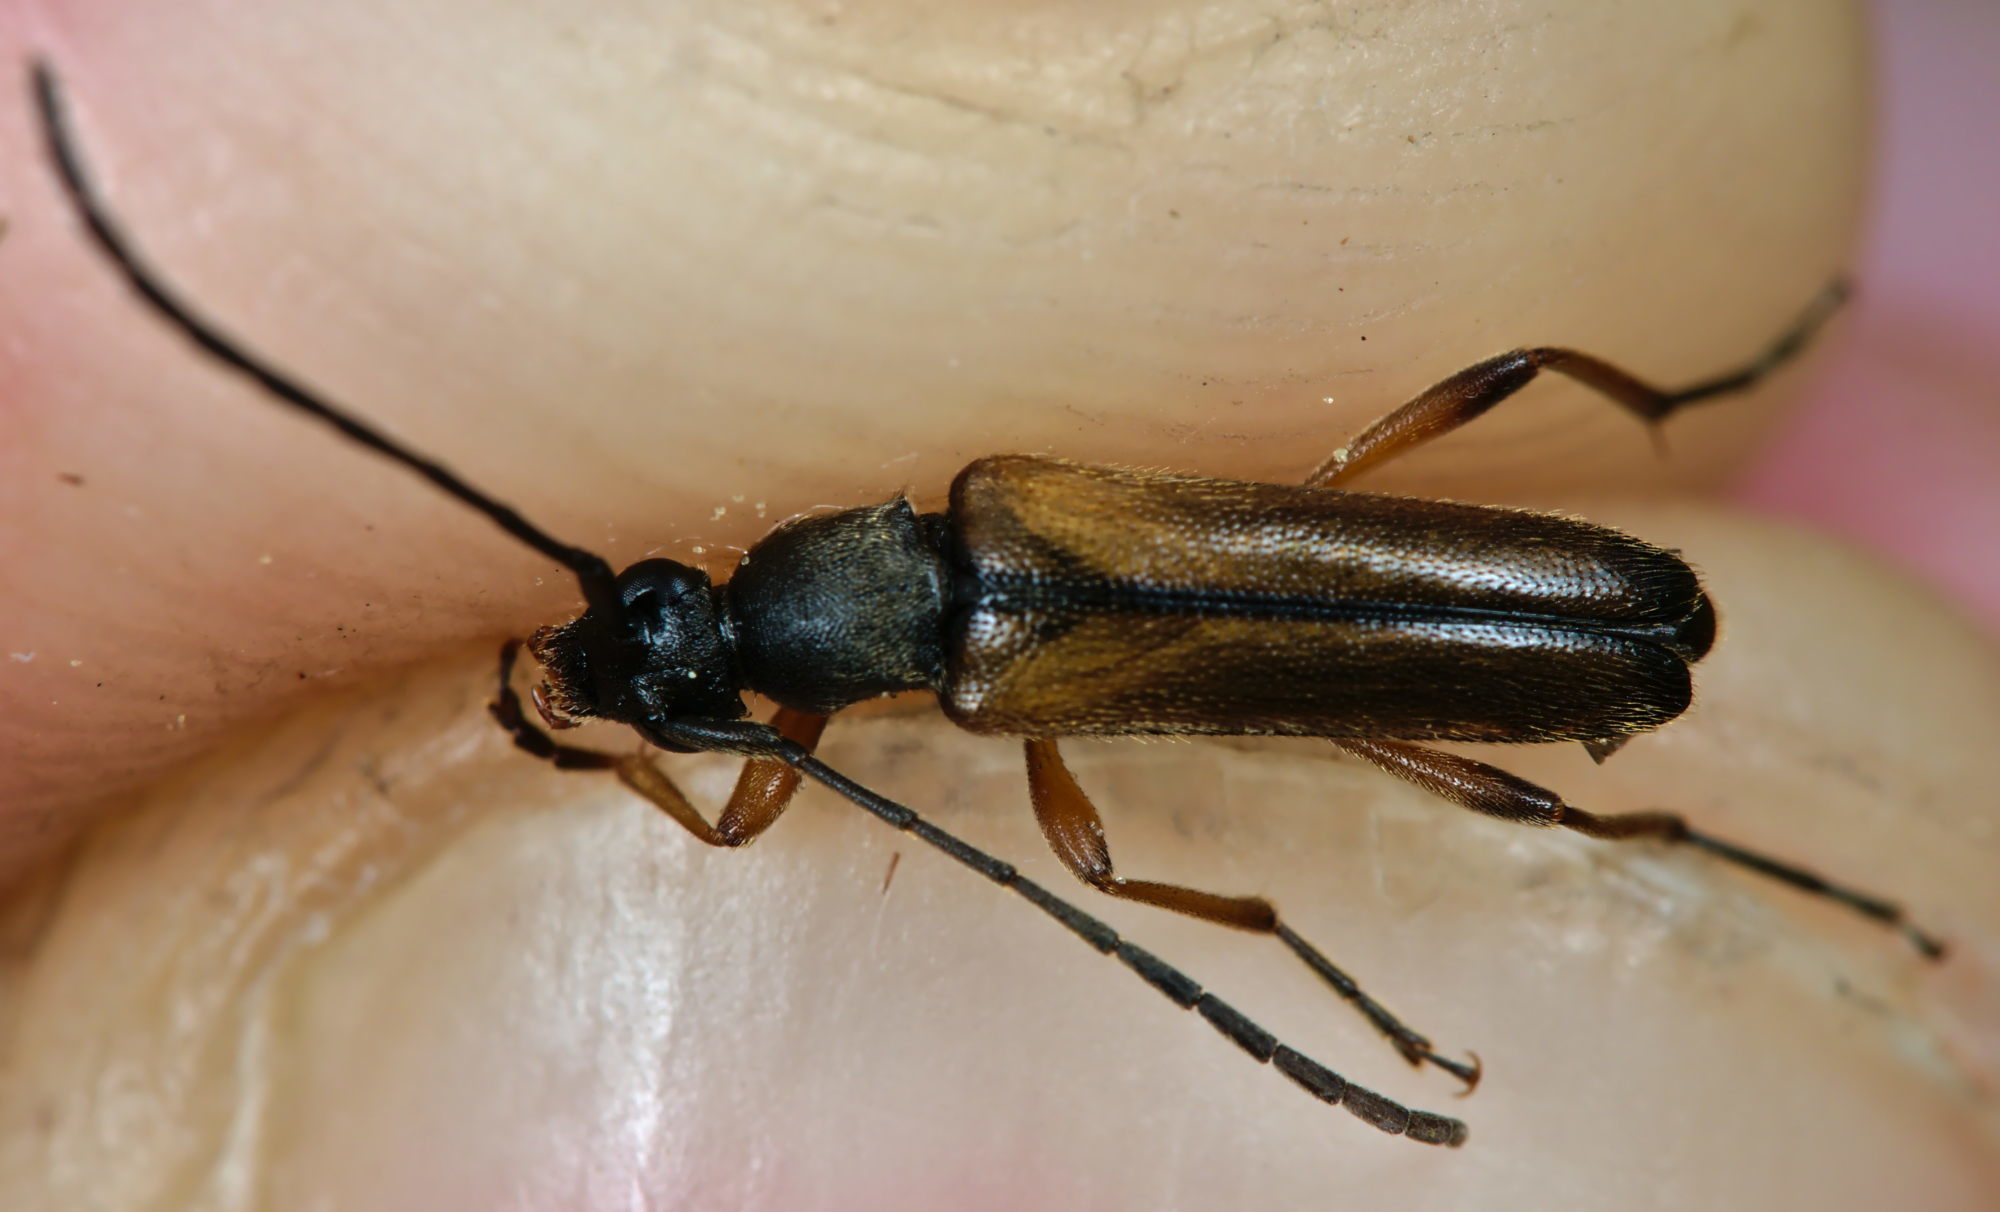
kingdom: Animalia
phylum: Arthropoda
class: Insecta
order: Coleoptera
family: Cerambycidae
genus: Alosterna
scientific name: Alosterna tabacicolor
